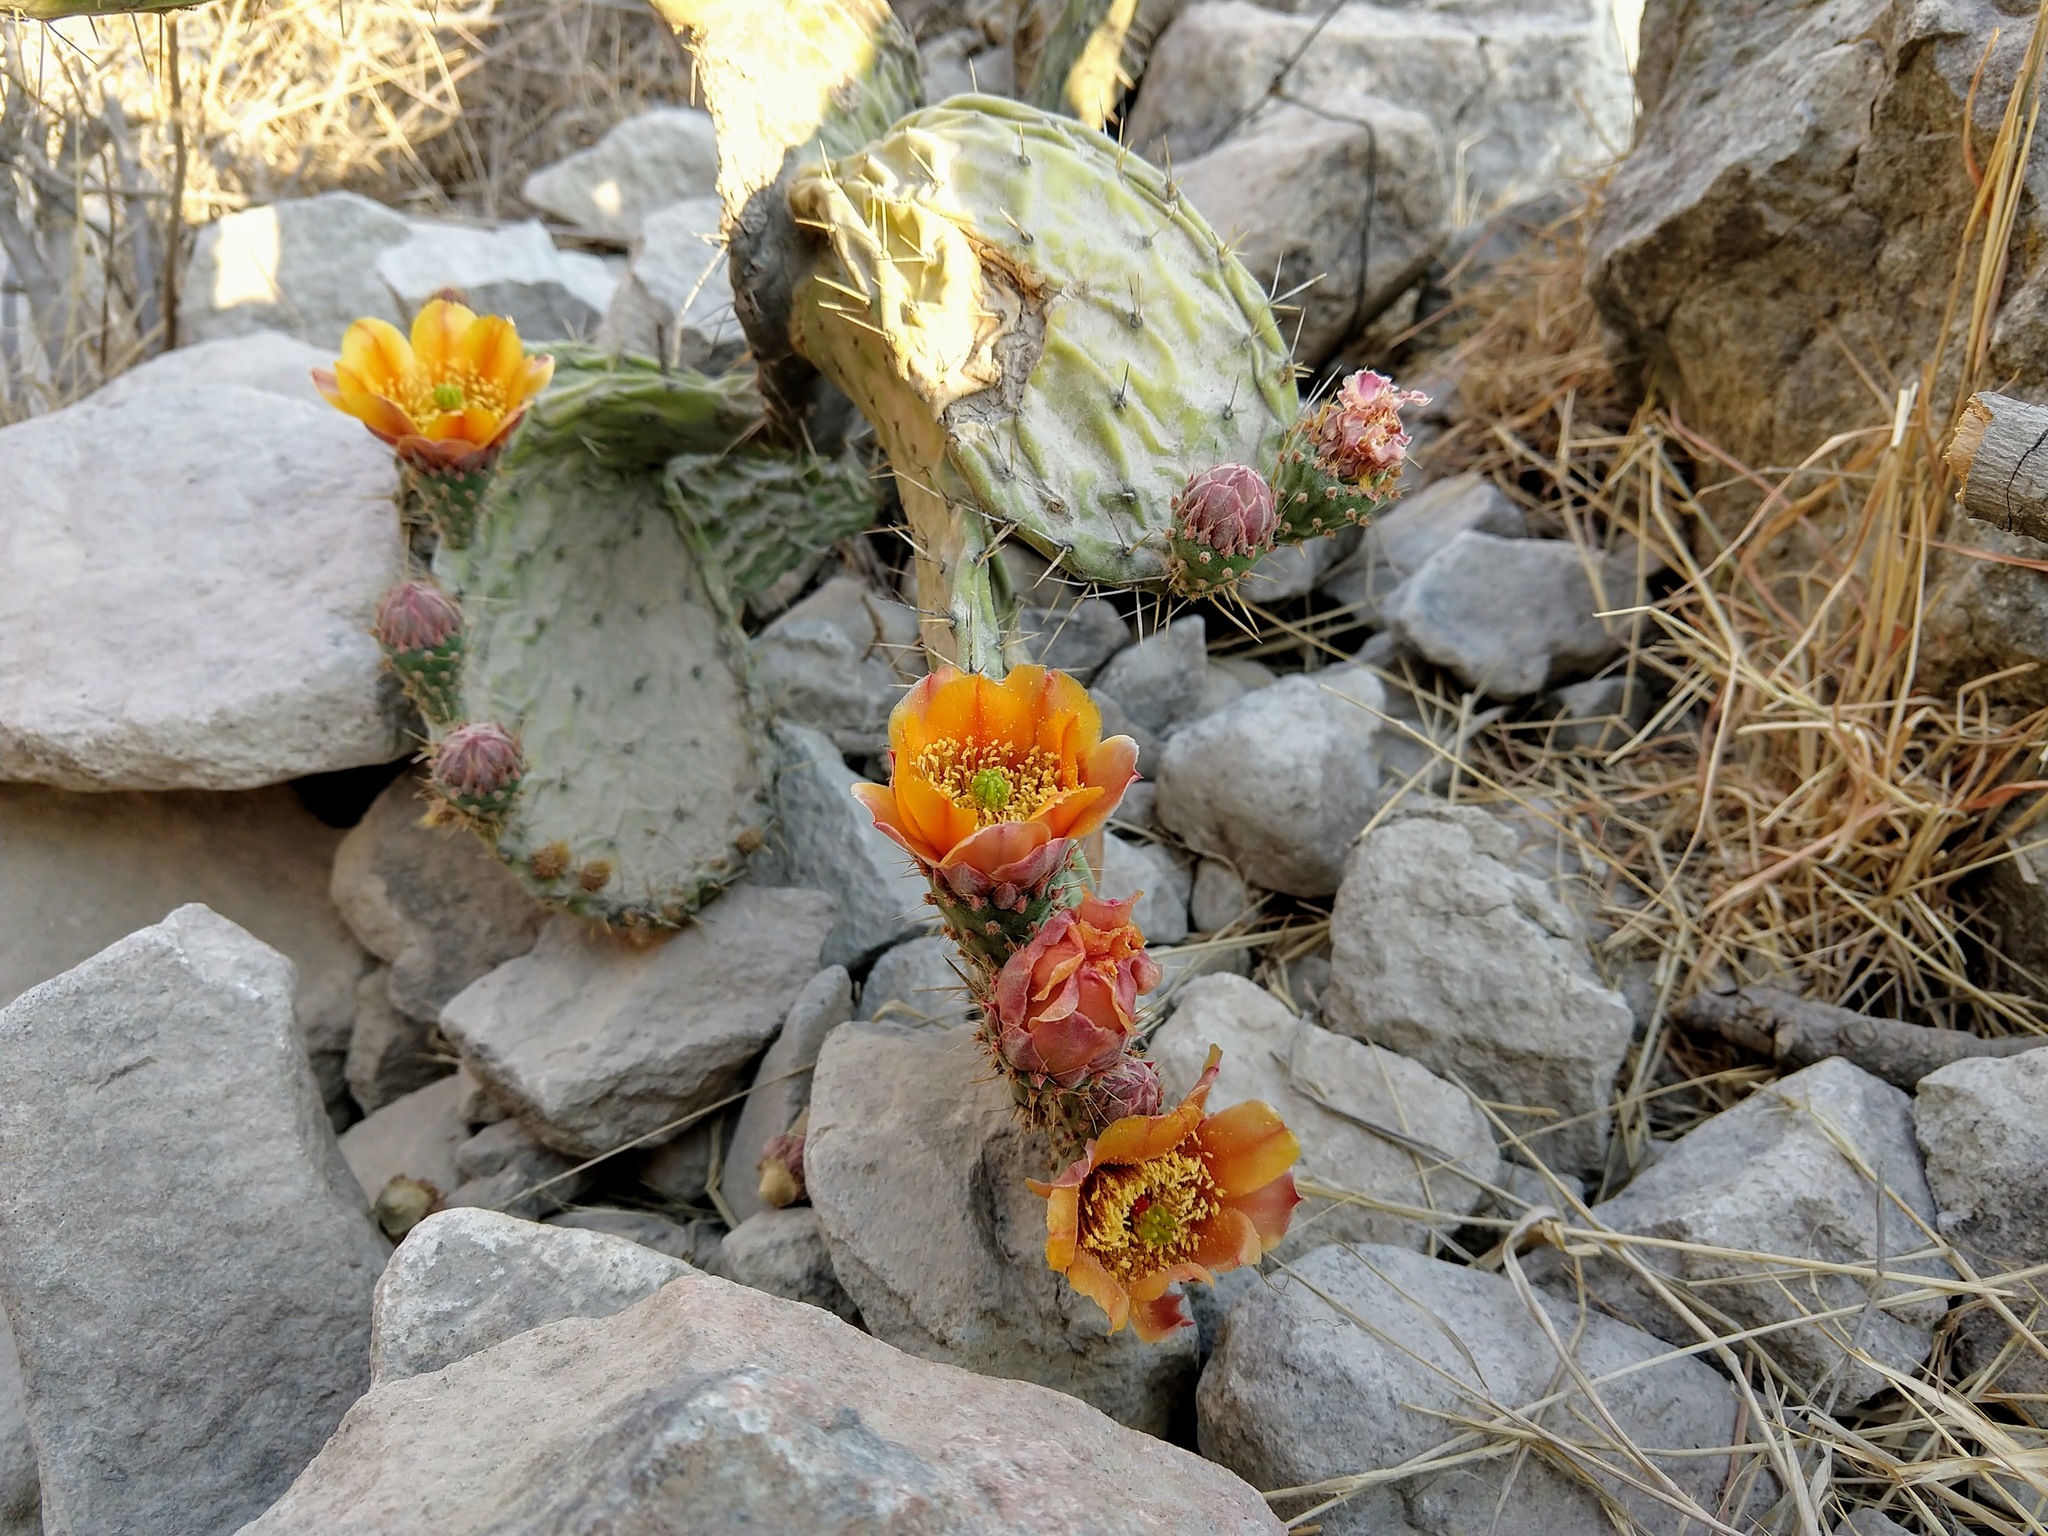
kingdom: Plantae
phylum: Tracheophyta
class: Magnoliopsida
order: Caryophyllales
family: Cactaceae
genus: Opuntia
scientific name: Opuntia tomentosa
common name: Woollyjoint pricklypear
